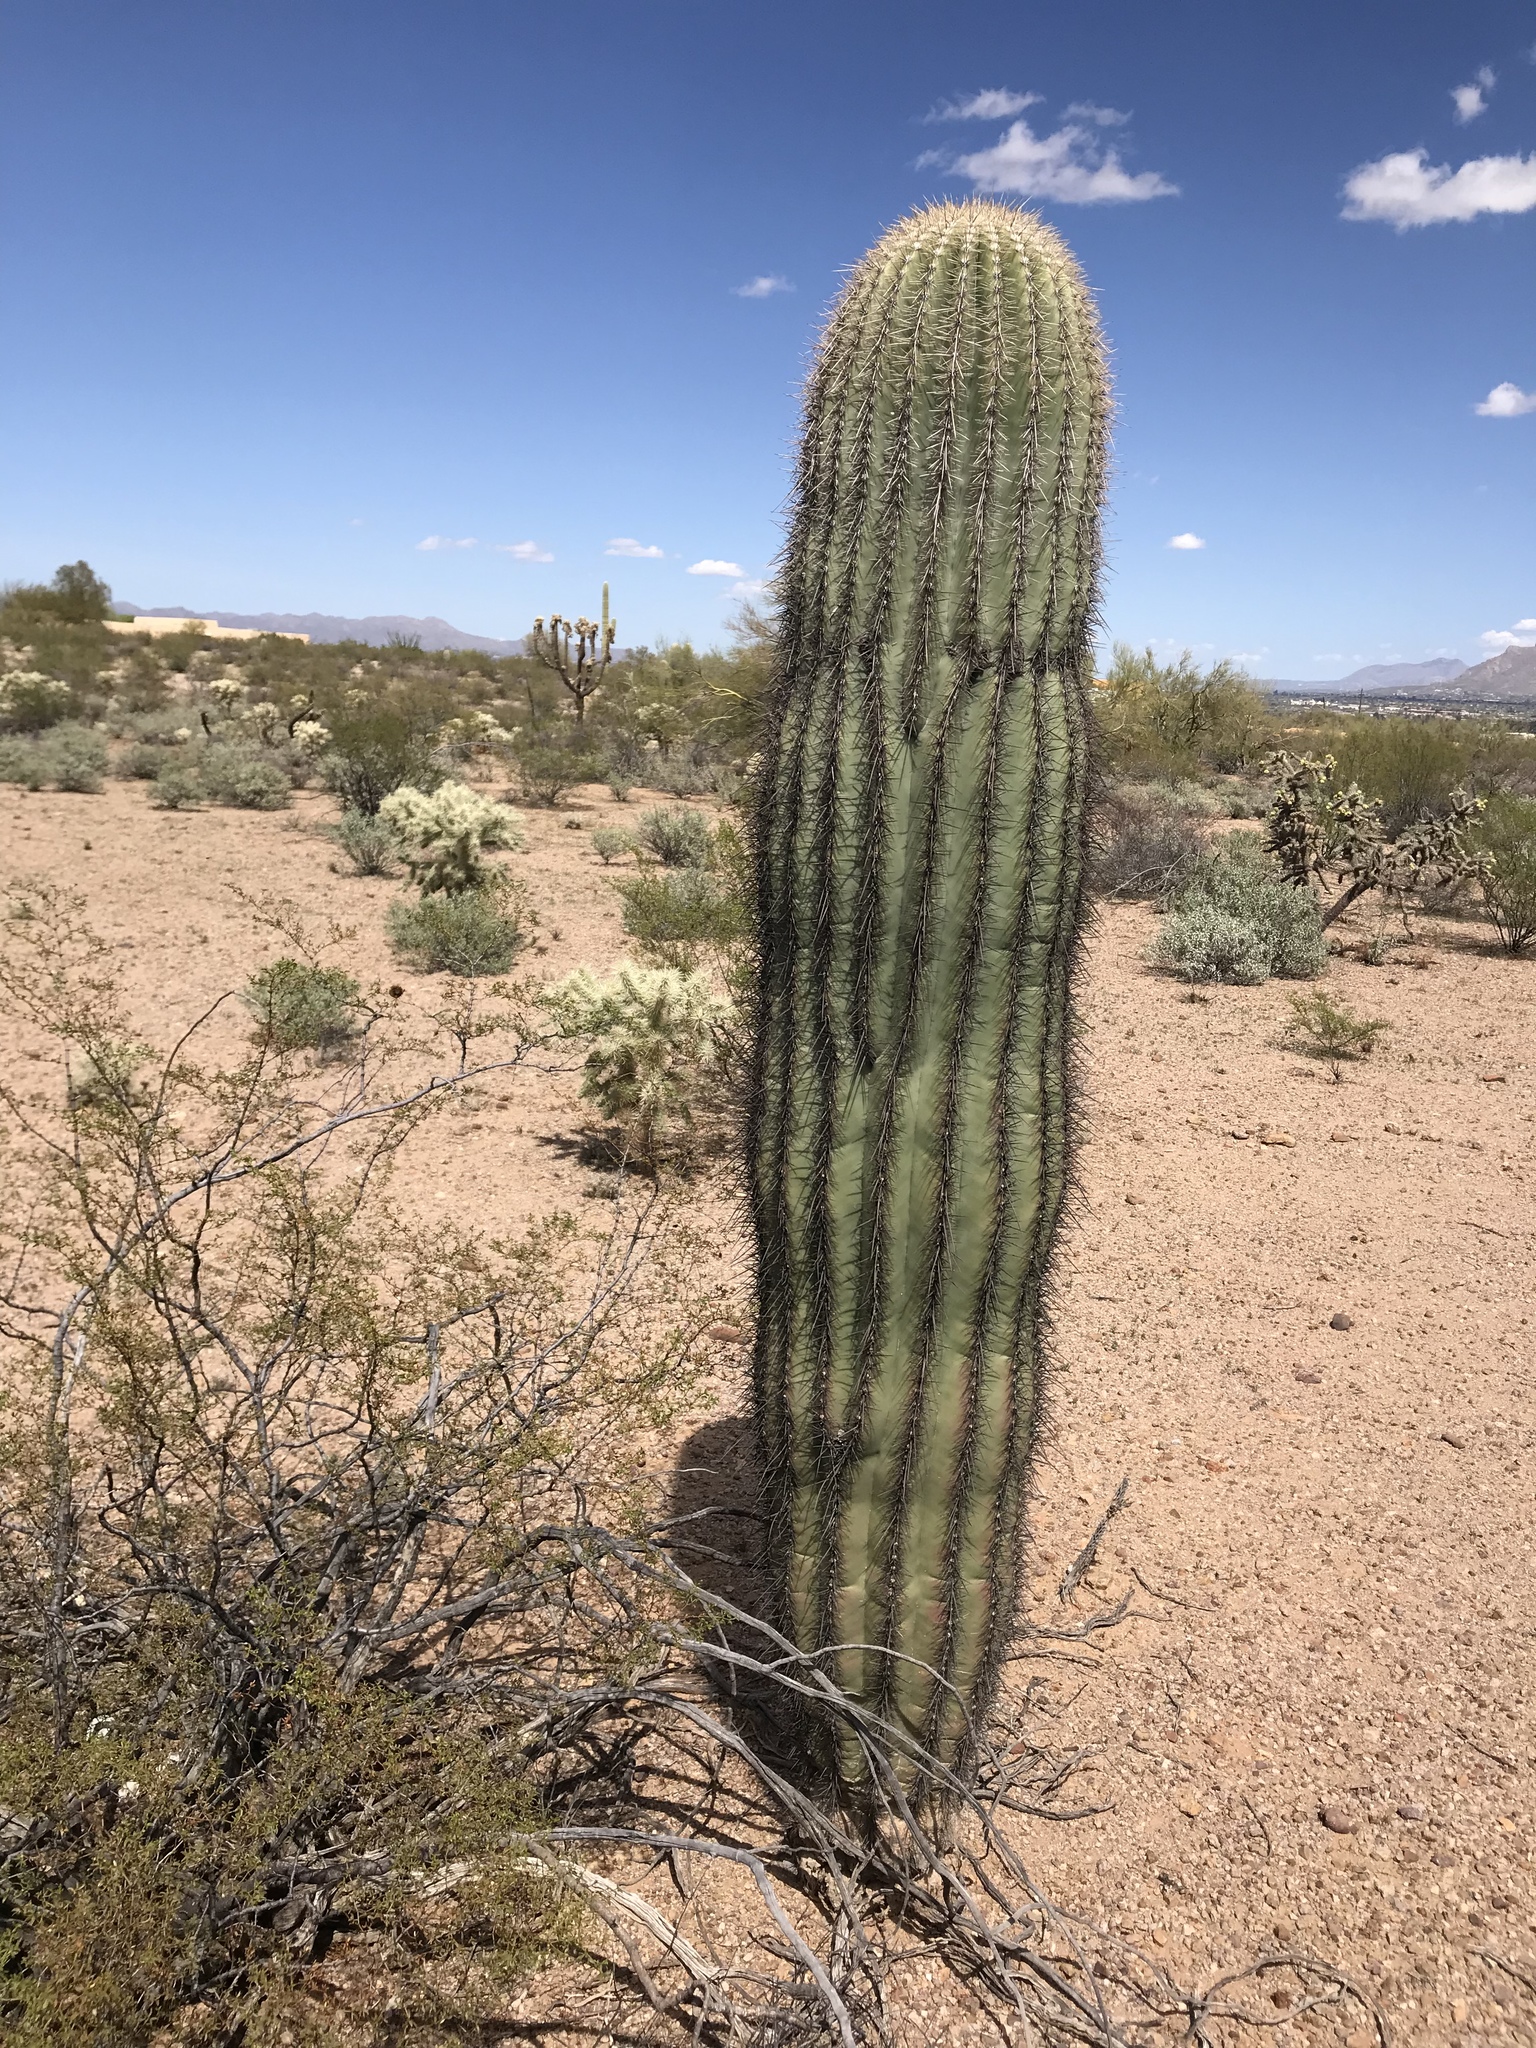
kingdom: Plantae
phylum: Tracheophyta
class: Magnoliopsida
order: Caryophyllales
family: Cactaceae
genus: Carnegiea
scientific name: Carnegiea gigantea
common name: Saguaro
